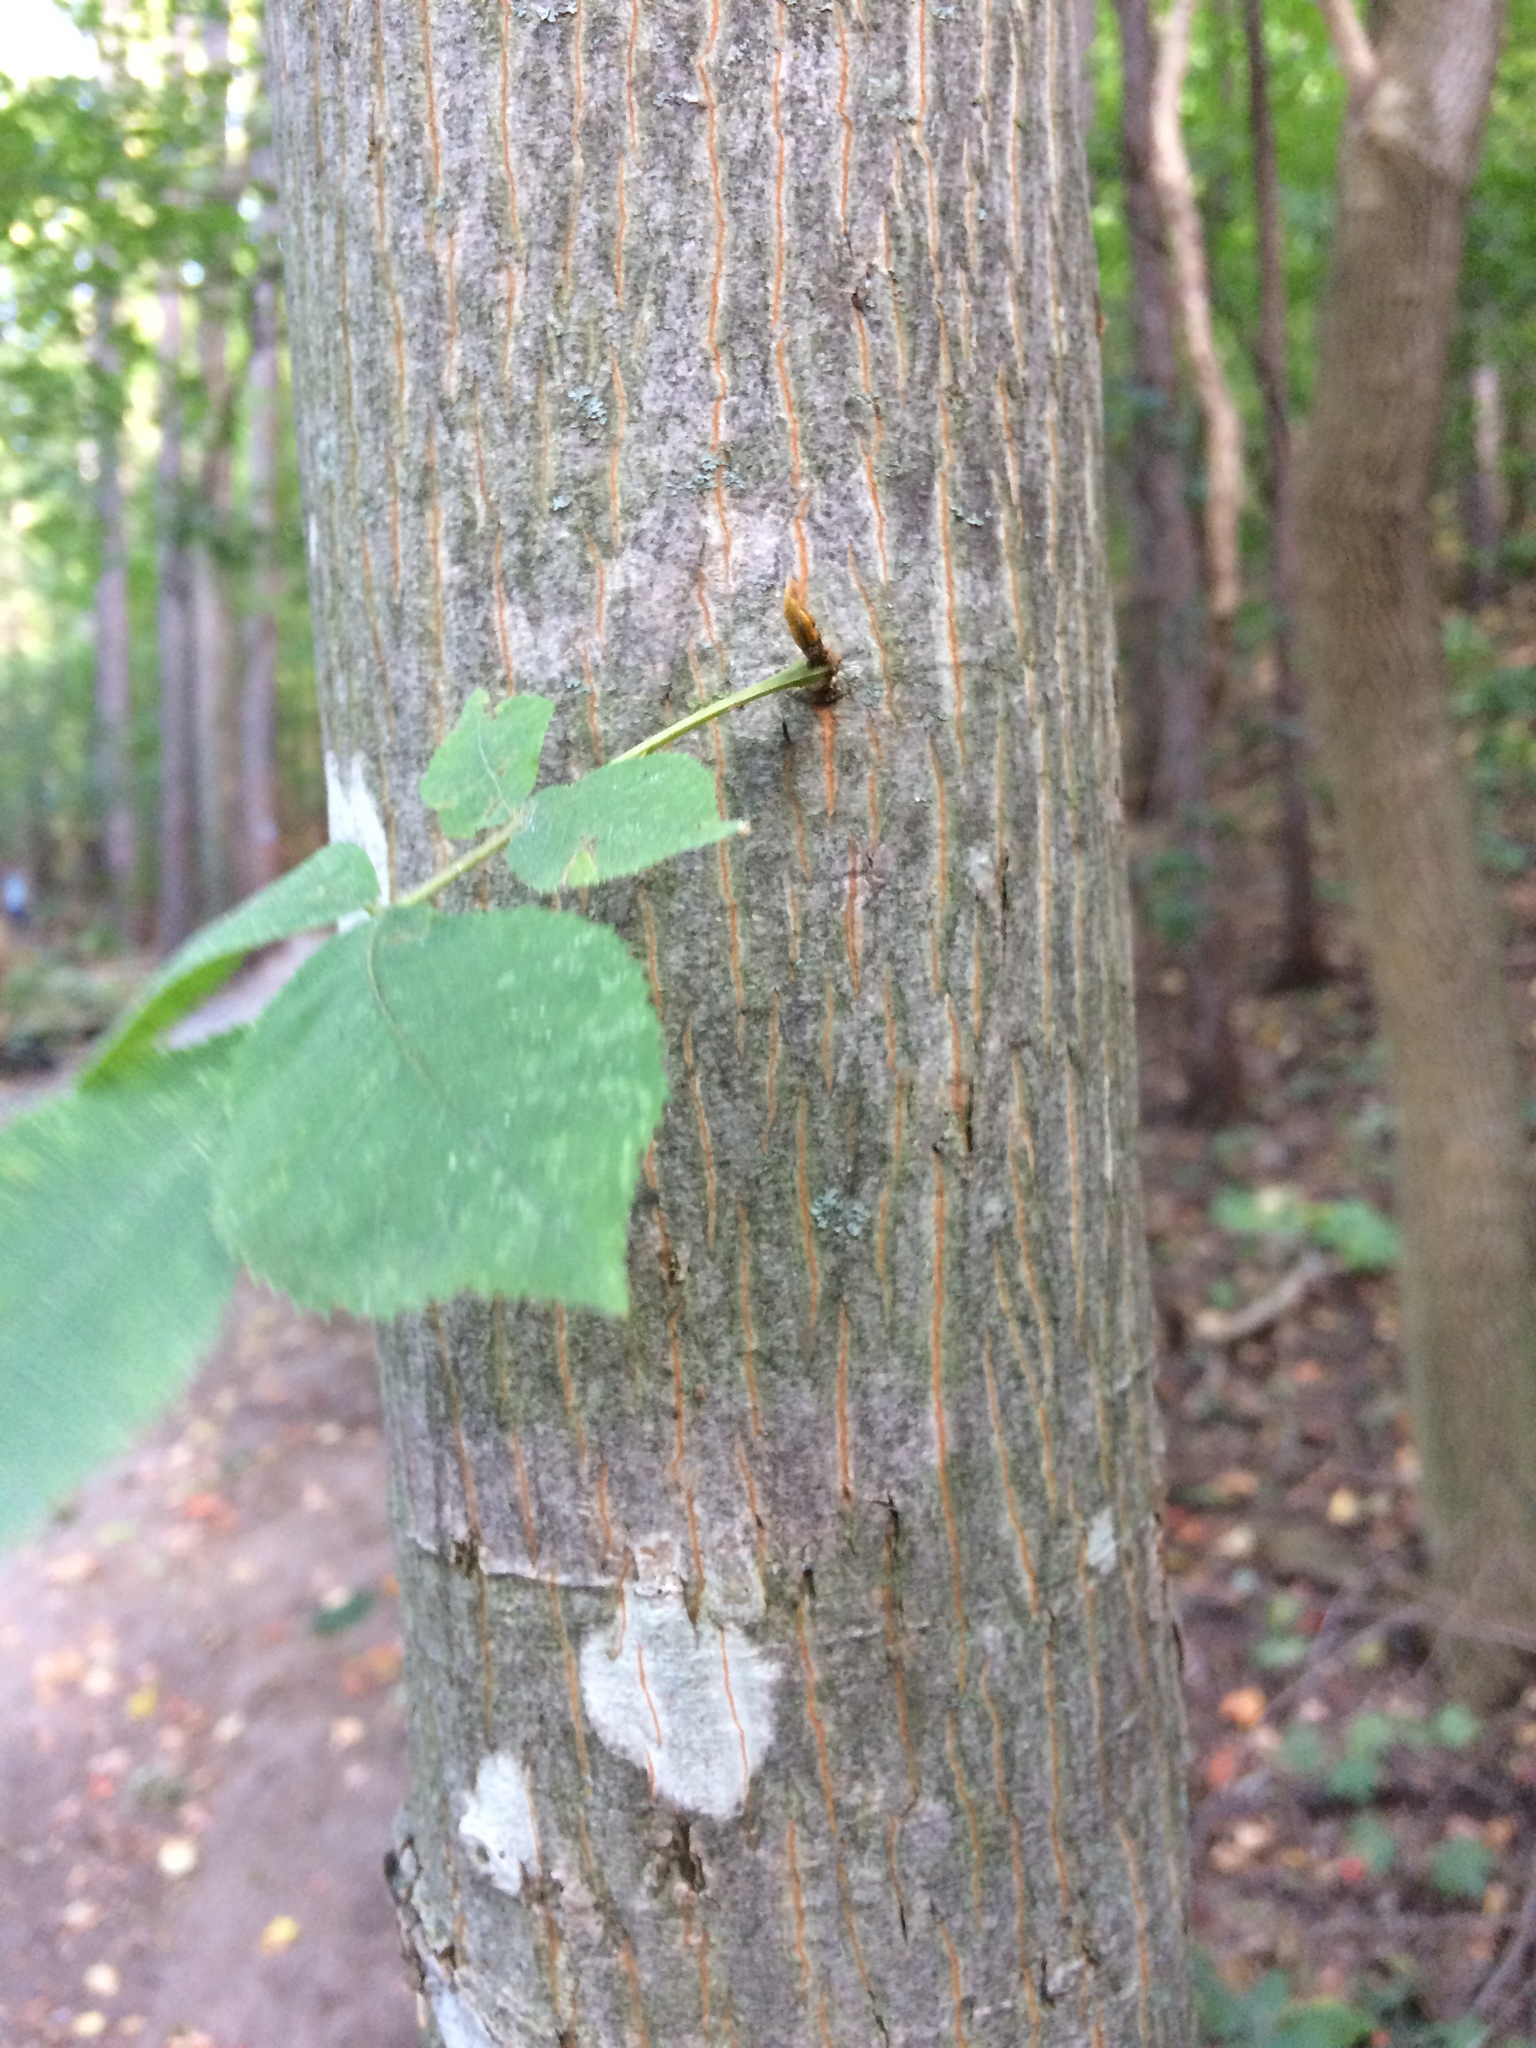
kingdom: Plantae
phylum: Tracheophyta
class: Magnoliopsida
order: Fagales
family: Juglandaceae
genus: Carya
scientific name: Carya cordiformis
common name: Bitternut hickory
